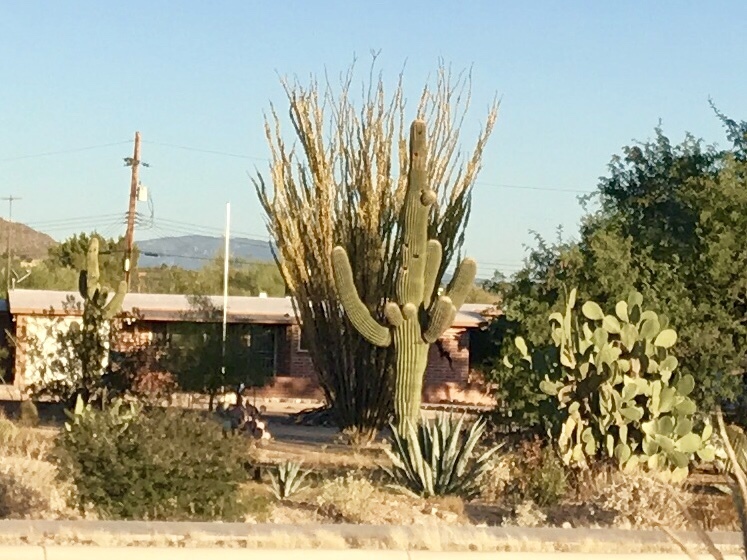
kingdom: Plantae
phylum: Tracheophyta
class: Magnoliopsida
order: Caryophyllales
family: Cactaceae
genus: Carnegiea
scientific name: Carnegiea gigantea
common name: Saguaro
